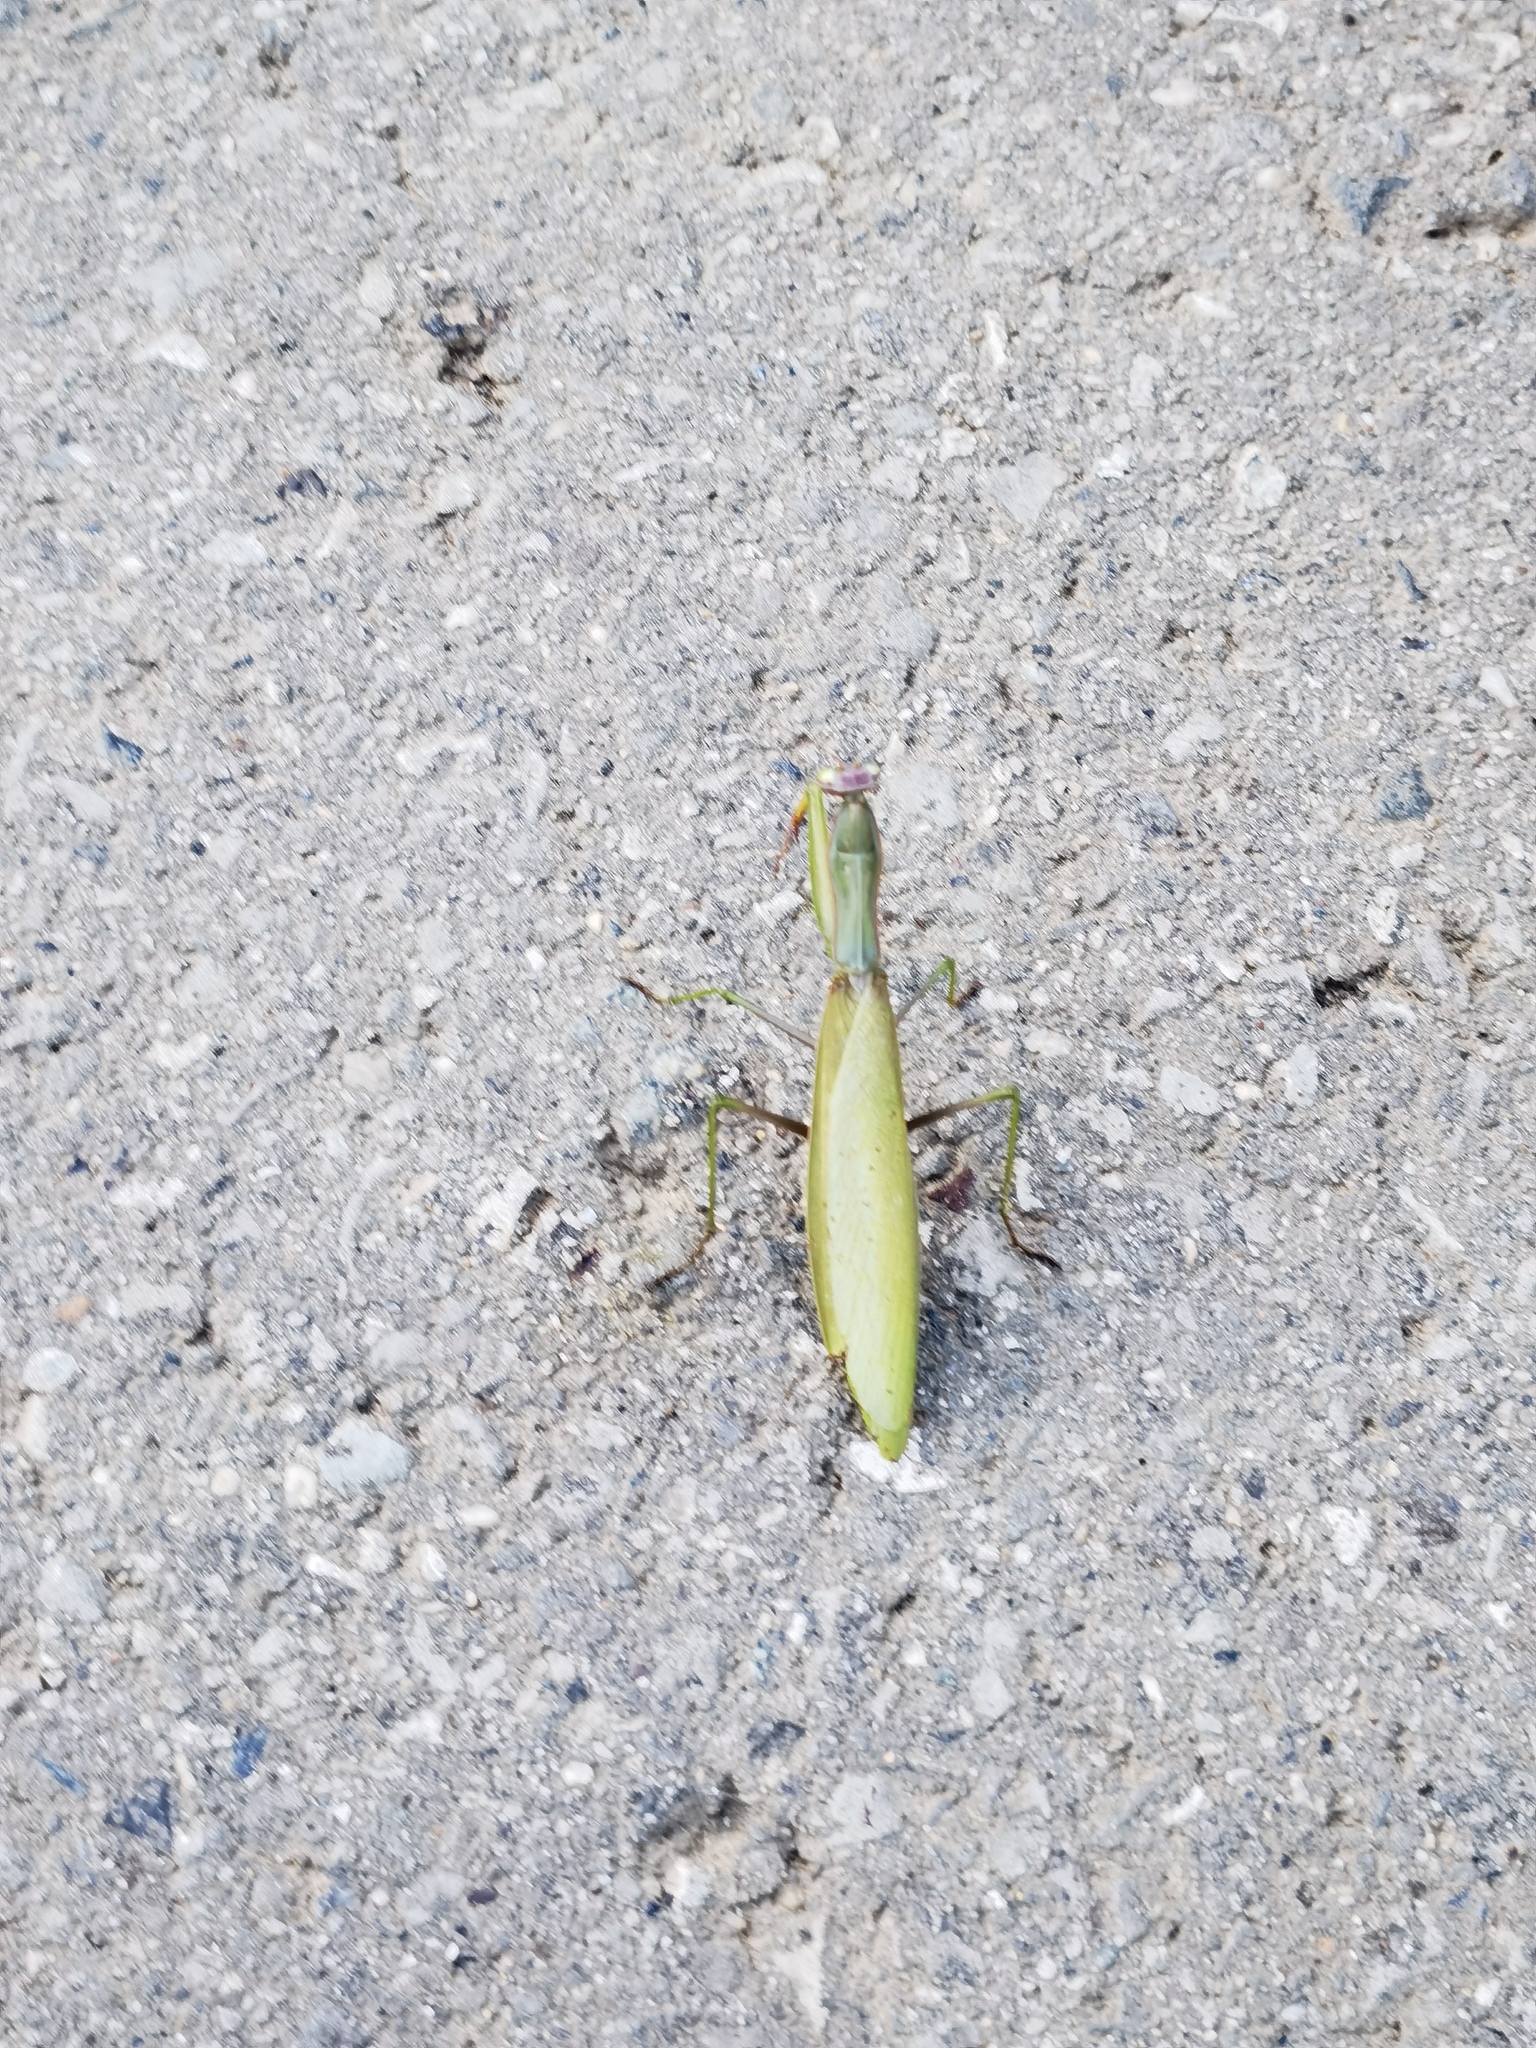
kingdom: Animalia
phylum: Arthropoda
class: Insecta
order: Mantodea
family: Mantidae
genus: Mantis
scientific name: Mantis religiosa
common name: Praying mantis
